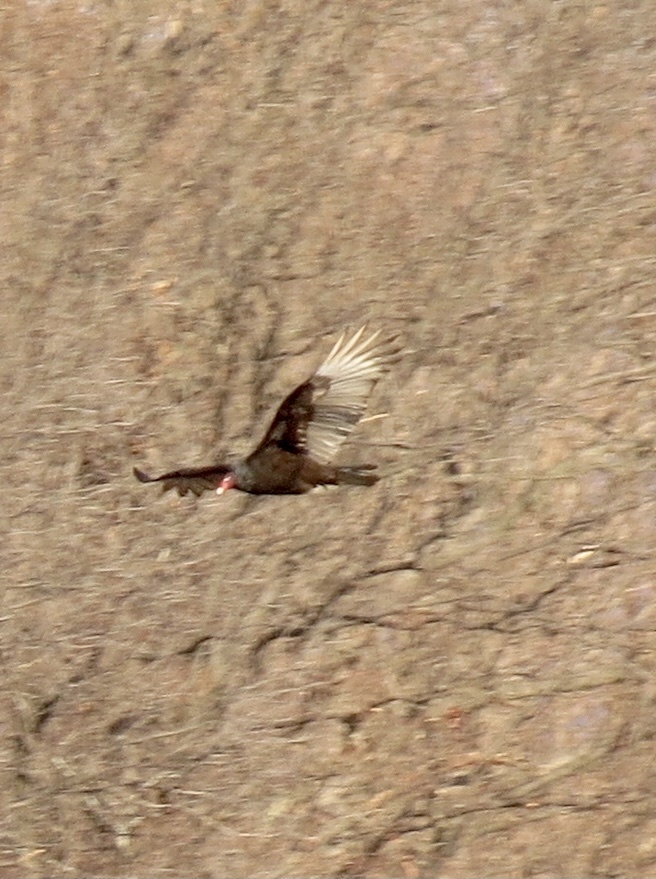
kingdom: Animalia
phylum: Chordata
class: Aves
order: Accipitriformes
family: Cathartidae
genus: Cathartes
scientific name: Cathartes aura
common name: Turkey vulture
